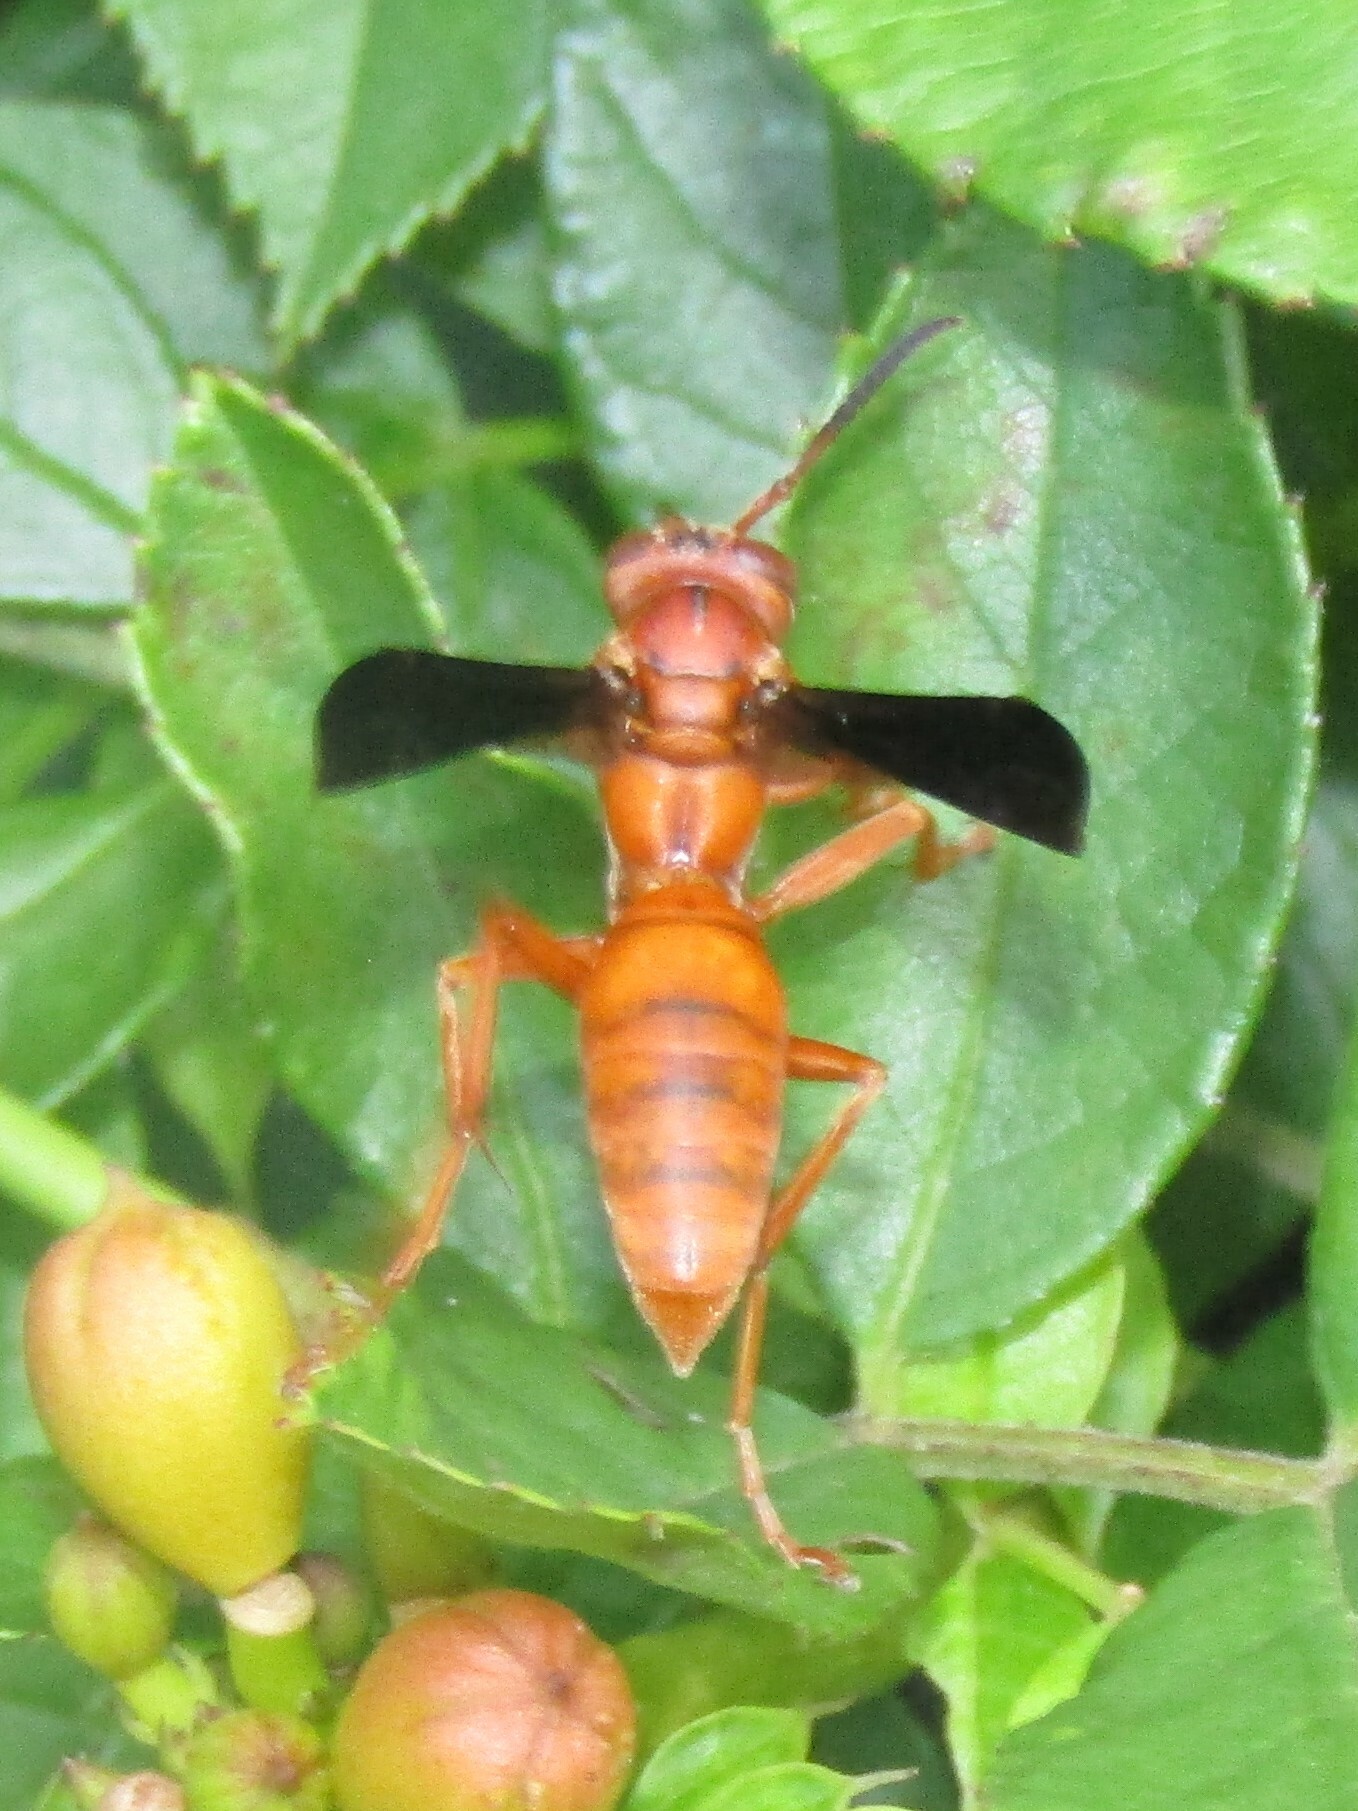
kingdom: Animalia
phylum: Arthropoda
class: Insecta
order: Hymenoptera
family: Vespidae
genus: Fuscopolistes
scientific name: Fuscopolistes
